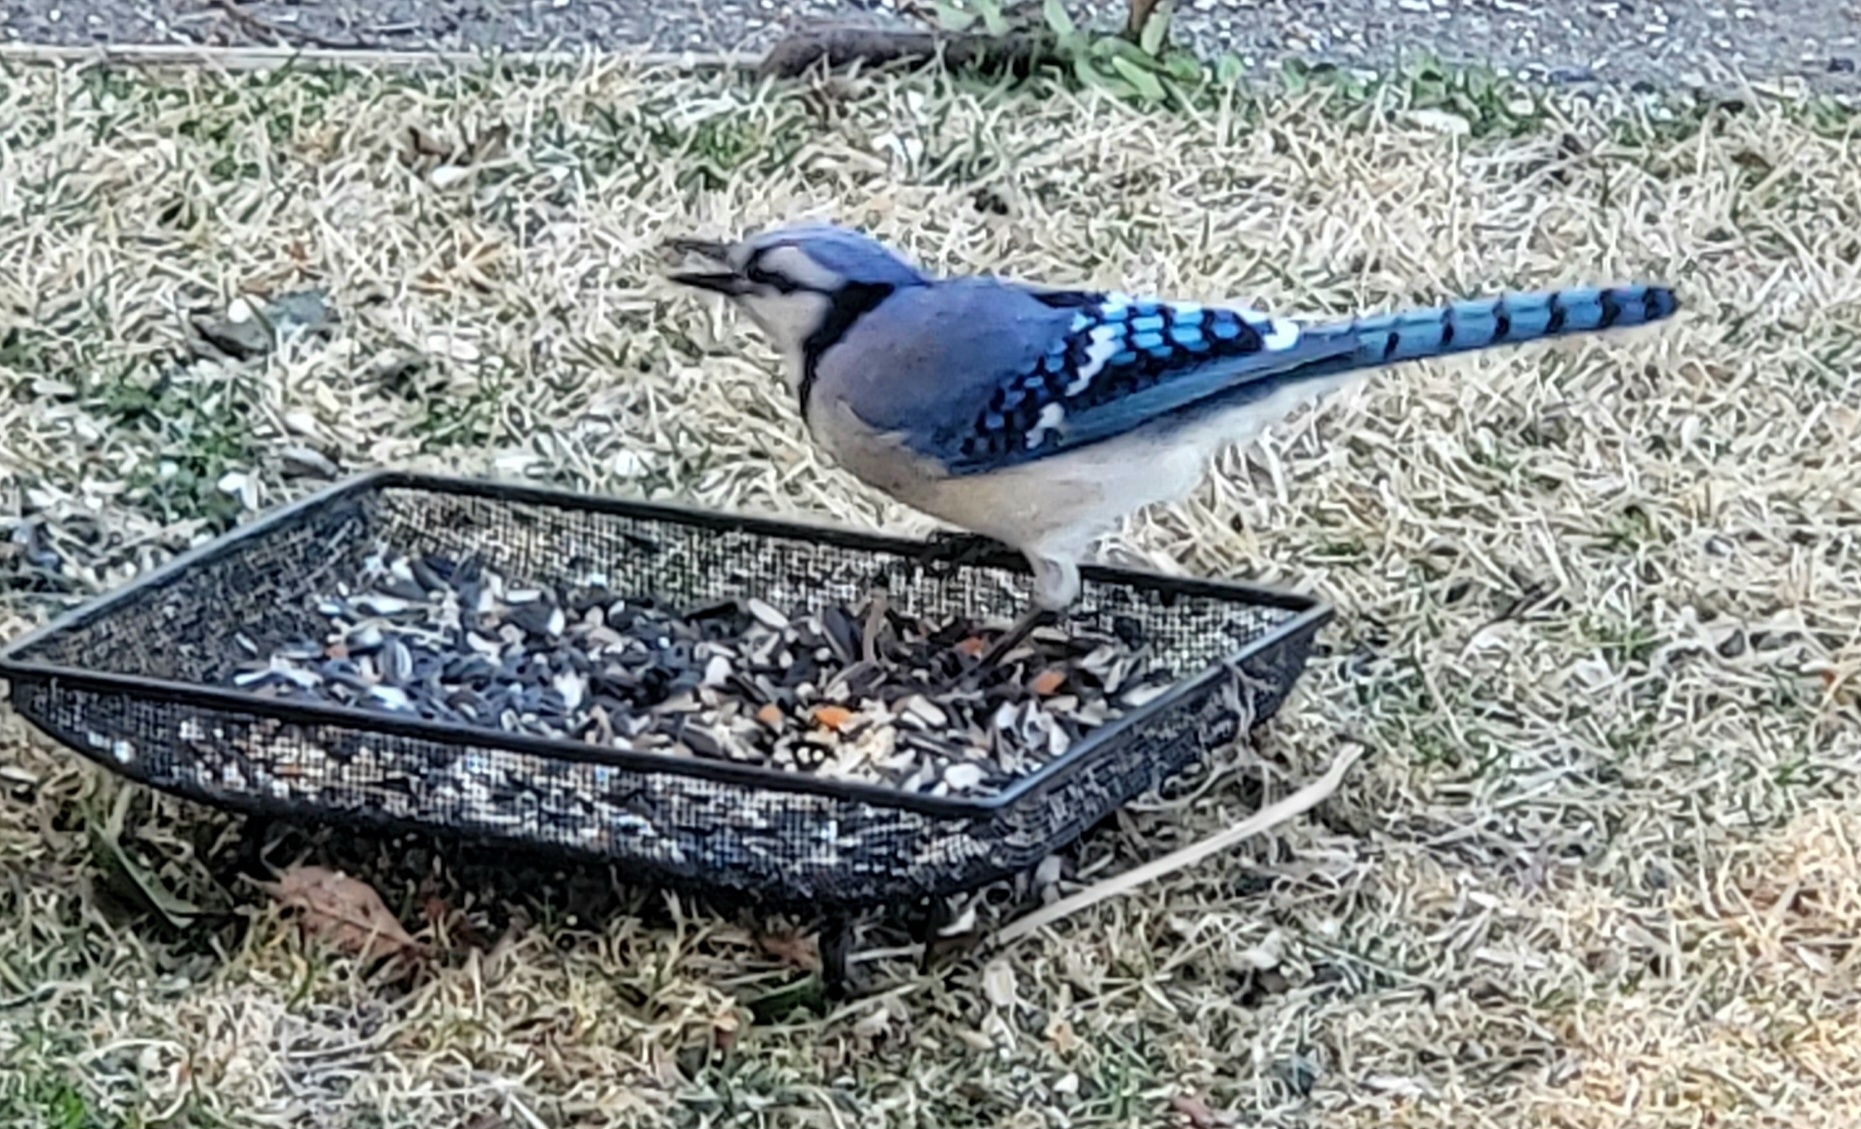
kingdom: Animalia
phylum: Chordata
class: Aves
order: Passeriformes
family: Corvidae
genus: Cyanocitta
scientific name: Cyanocitta cristata
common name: Blue jay
